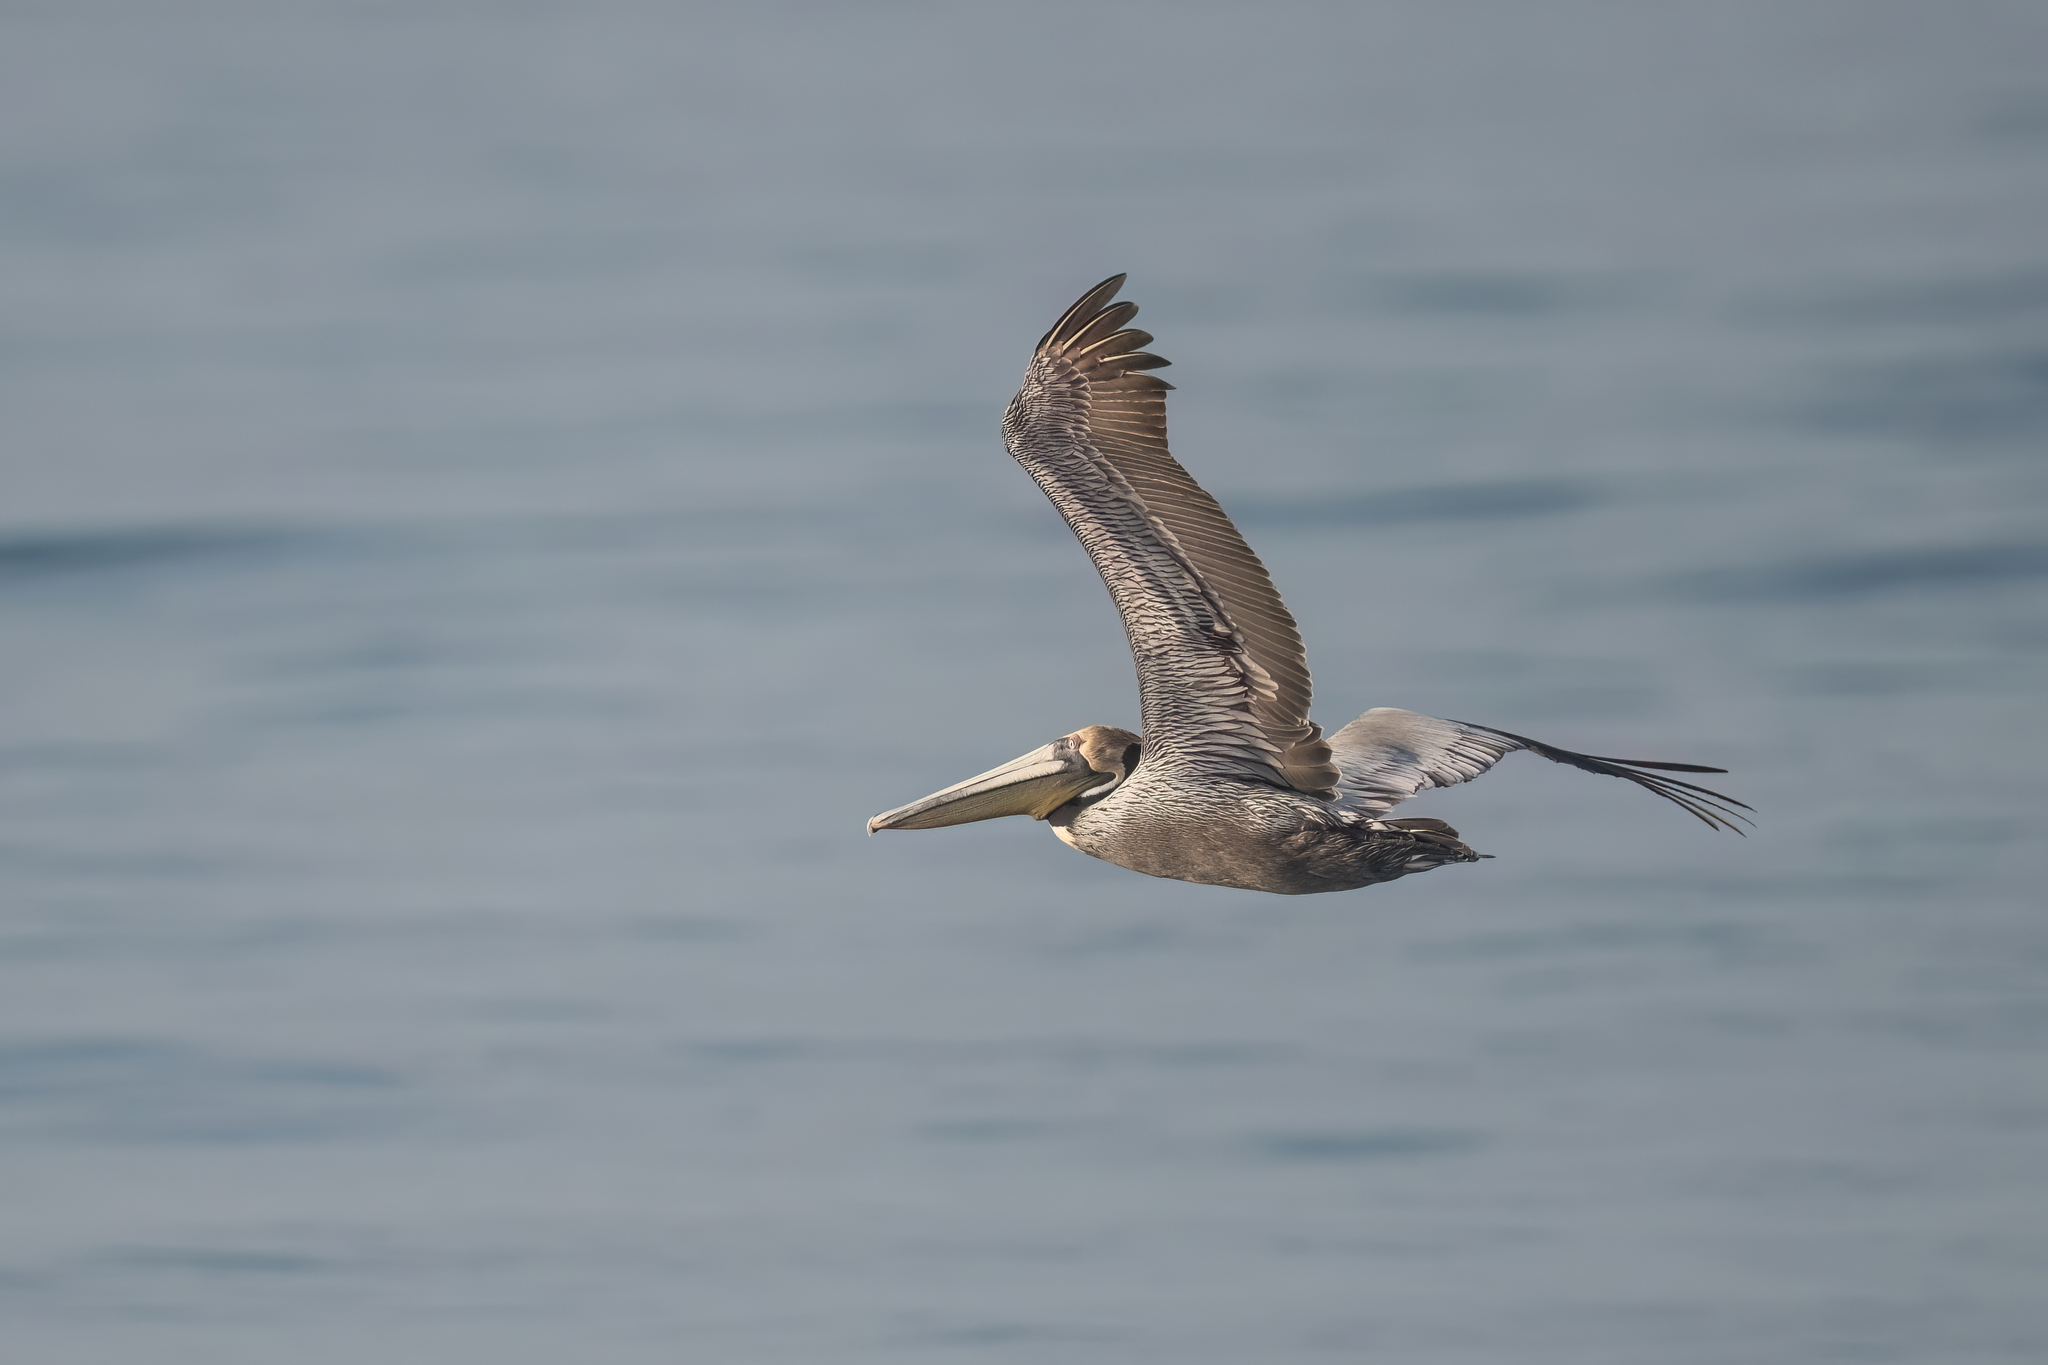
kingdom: Animalia
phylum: Chordata
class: Aves
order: Pelecaniformes
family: Pelecanidae
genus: Pelecanus
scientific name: Pelecanus occidentalis
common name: Brown pelican
